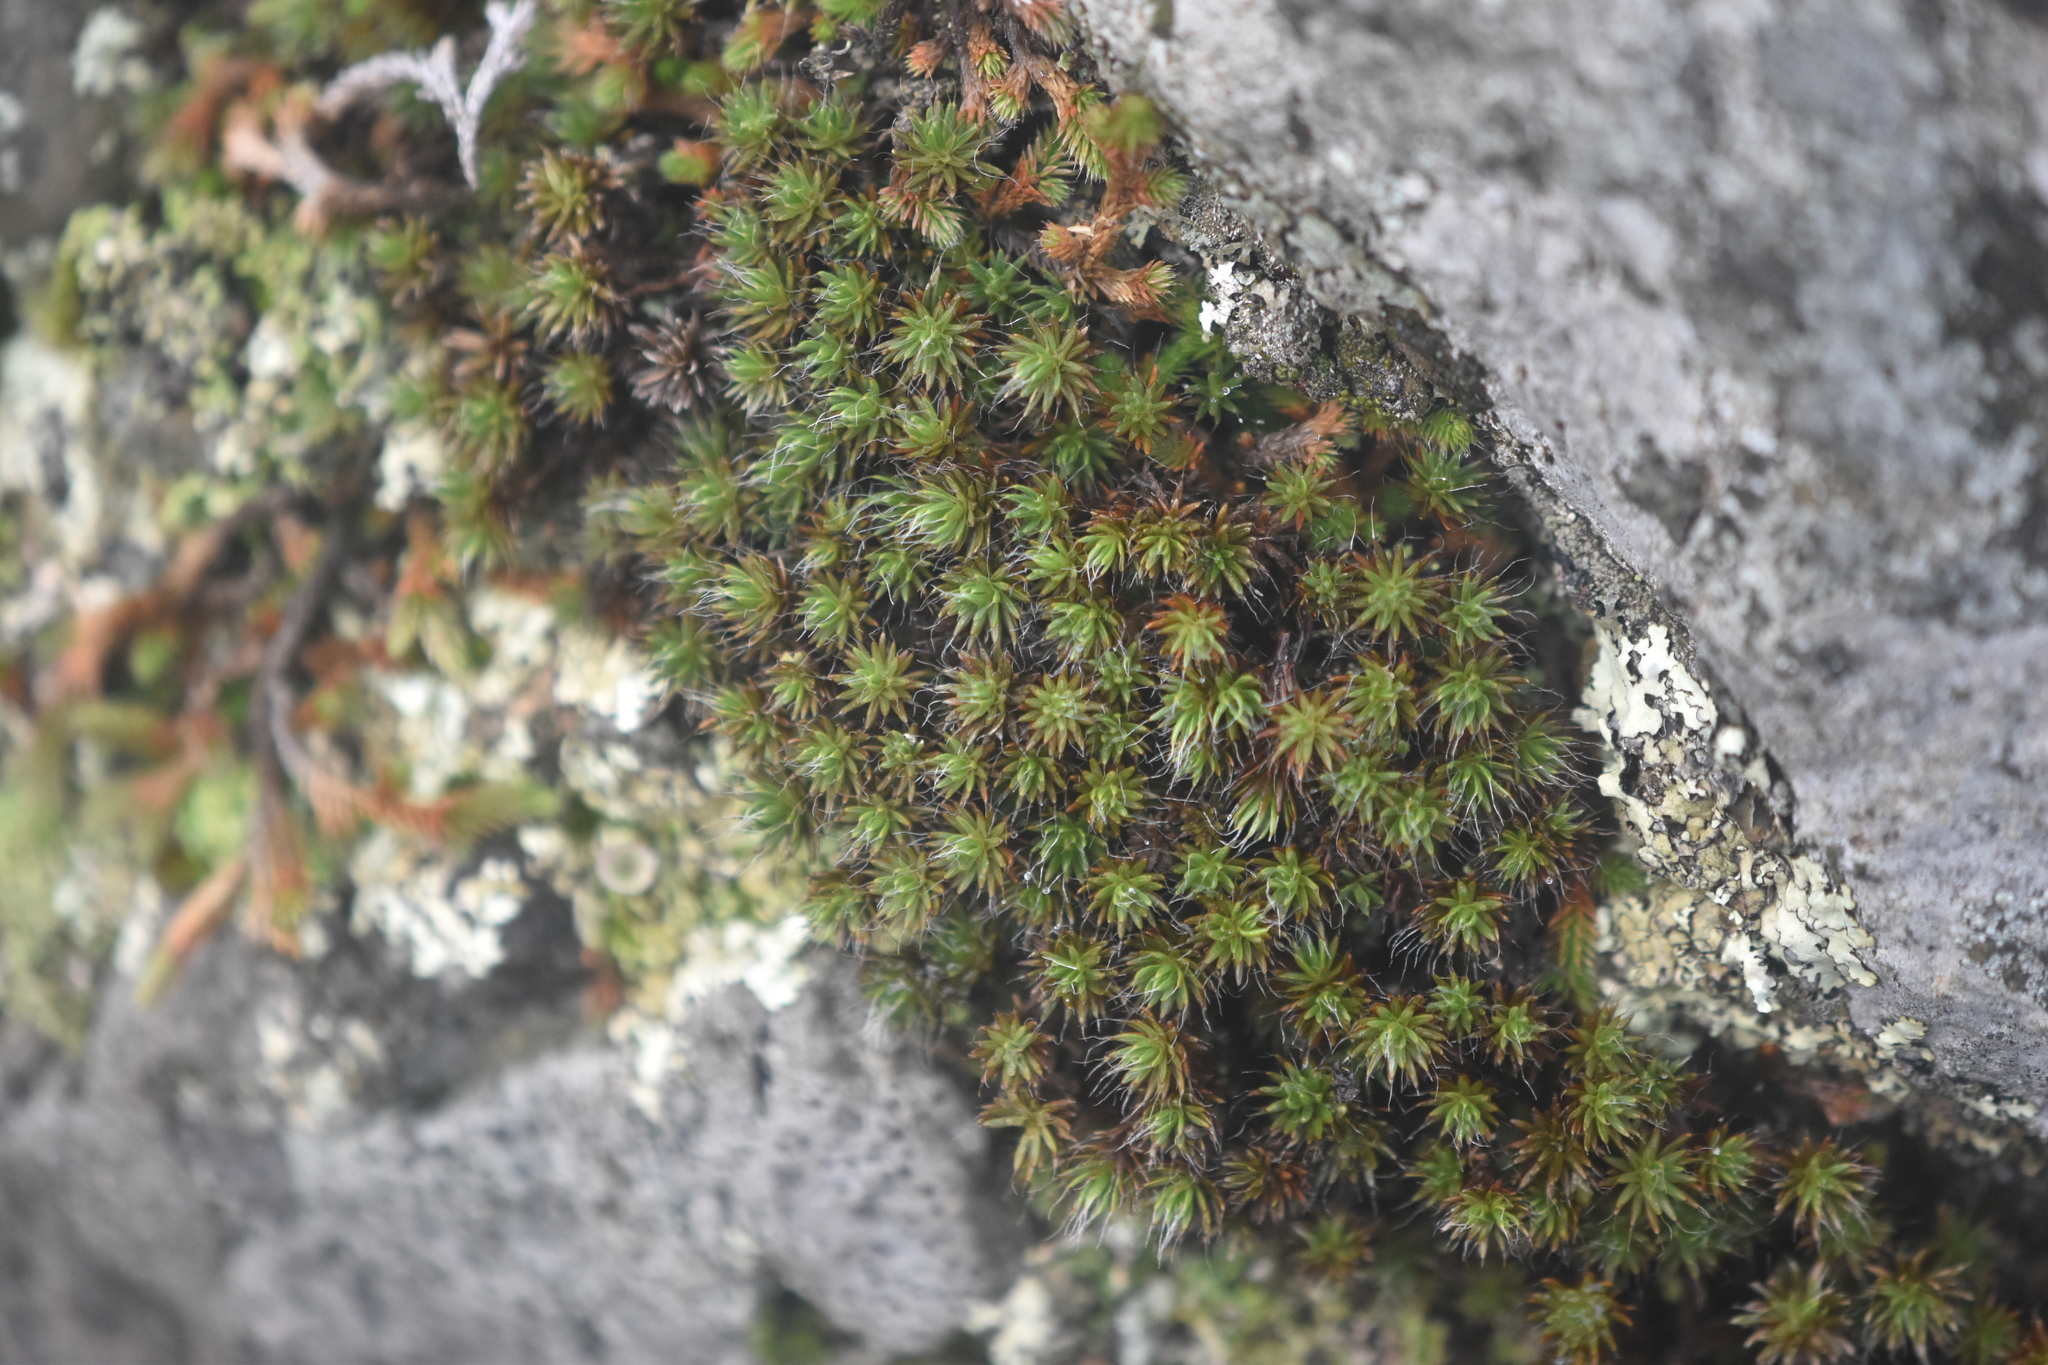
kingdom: Plantae
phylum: Bryophyta
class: Polytrichopsida
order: Polytrichales
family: Polytrichaceae
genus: Polytrichum
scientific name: Polytrichum piliferum
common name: Bristly haircap
